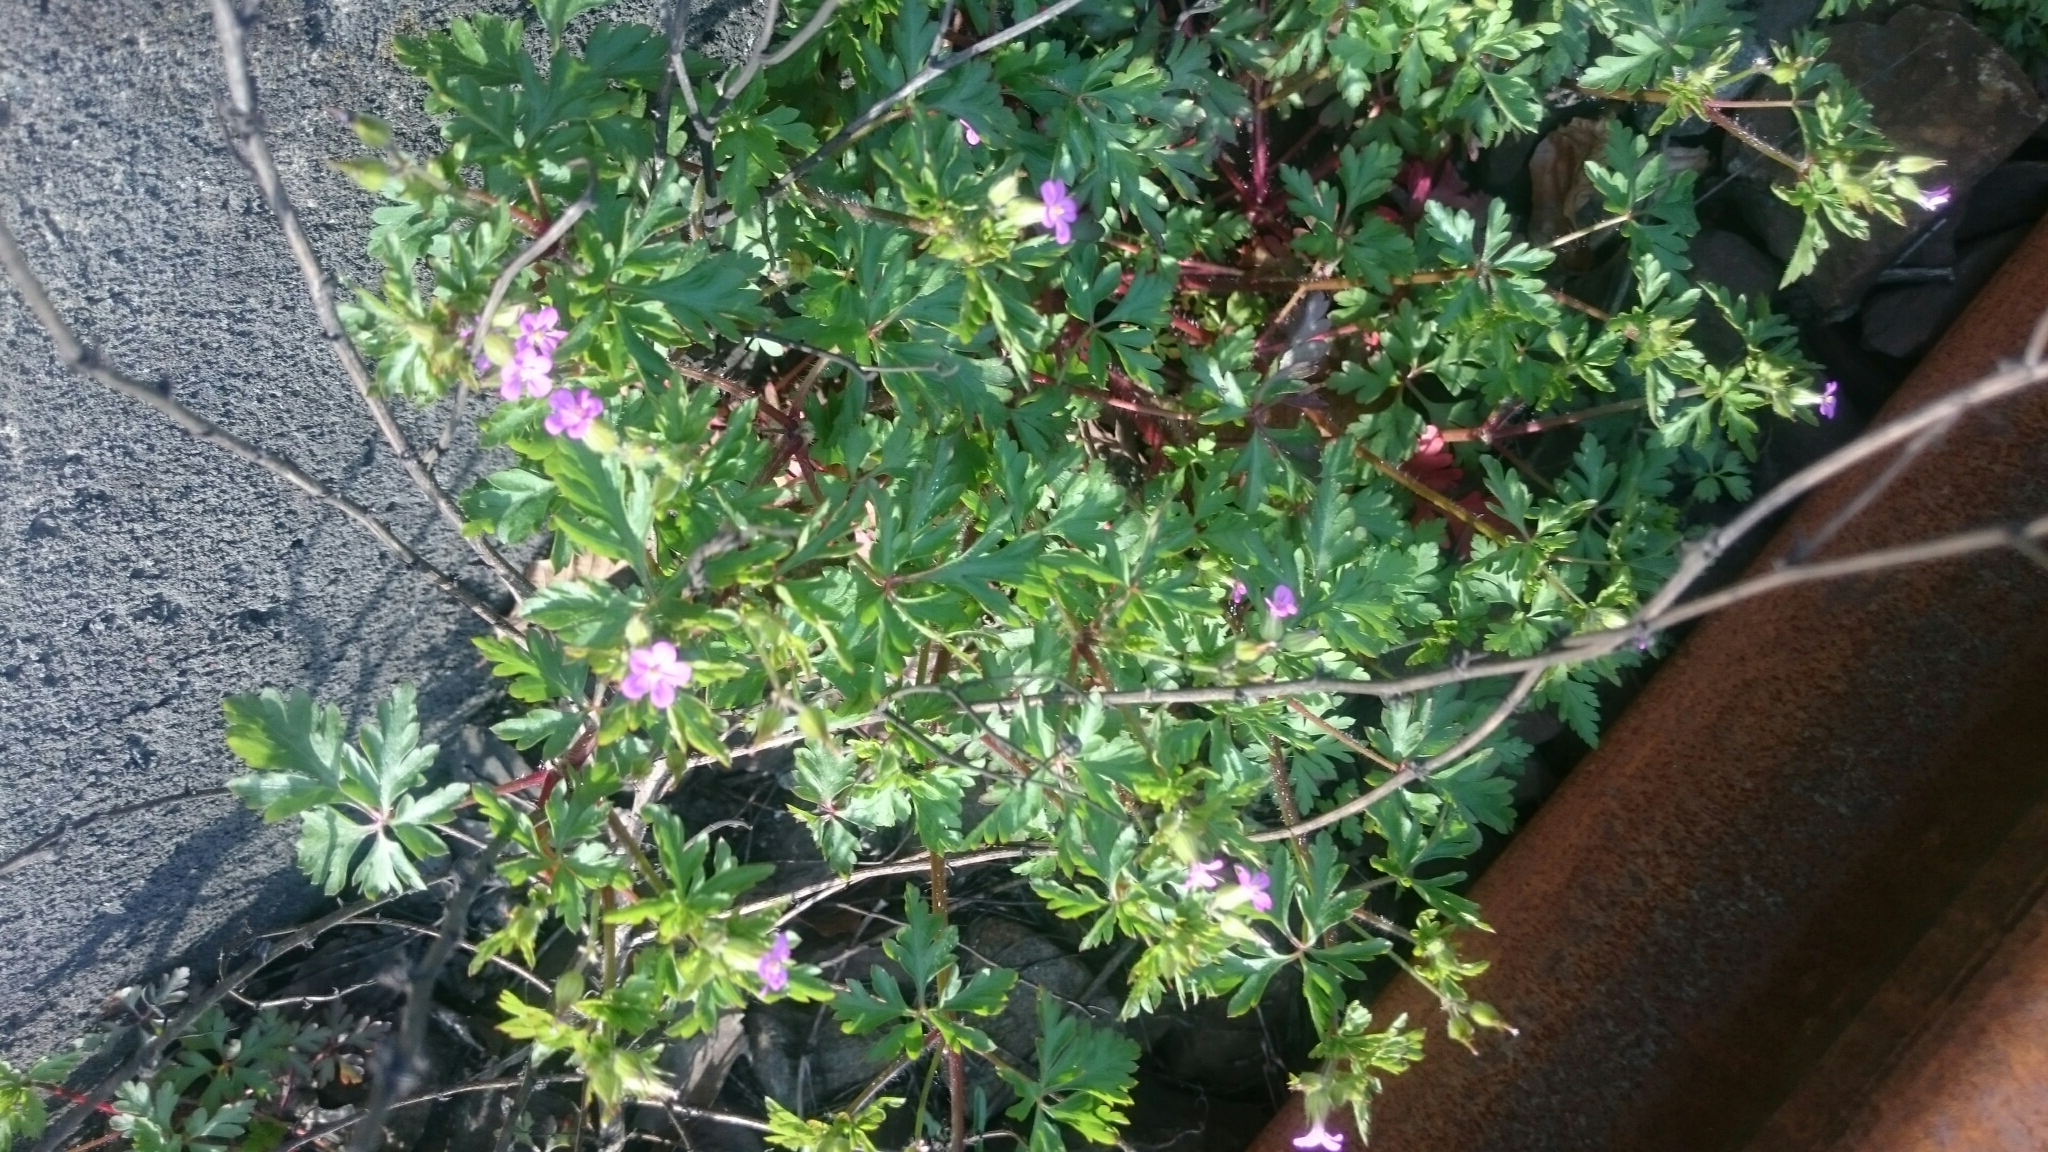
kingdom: Plantae
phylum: Tracheophyta
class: Magnoliopsida
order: Geraniales
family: Geraniaceae
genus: Geranium
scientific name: Geranium purpureum
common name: Little-robin
